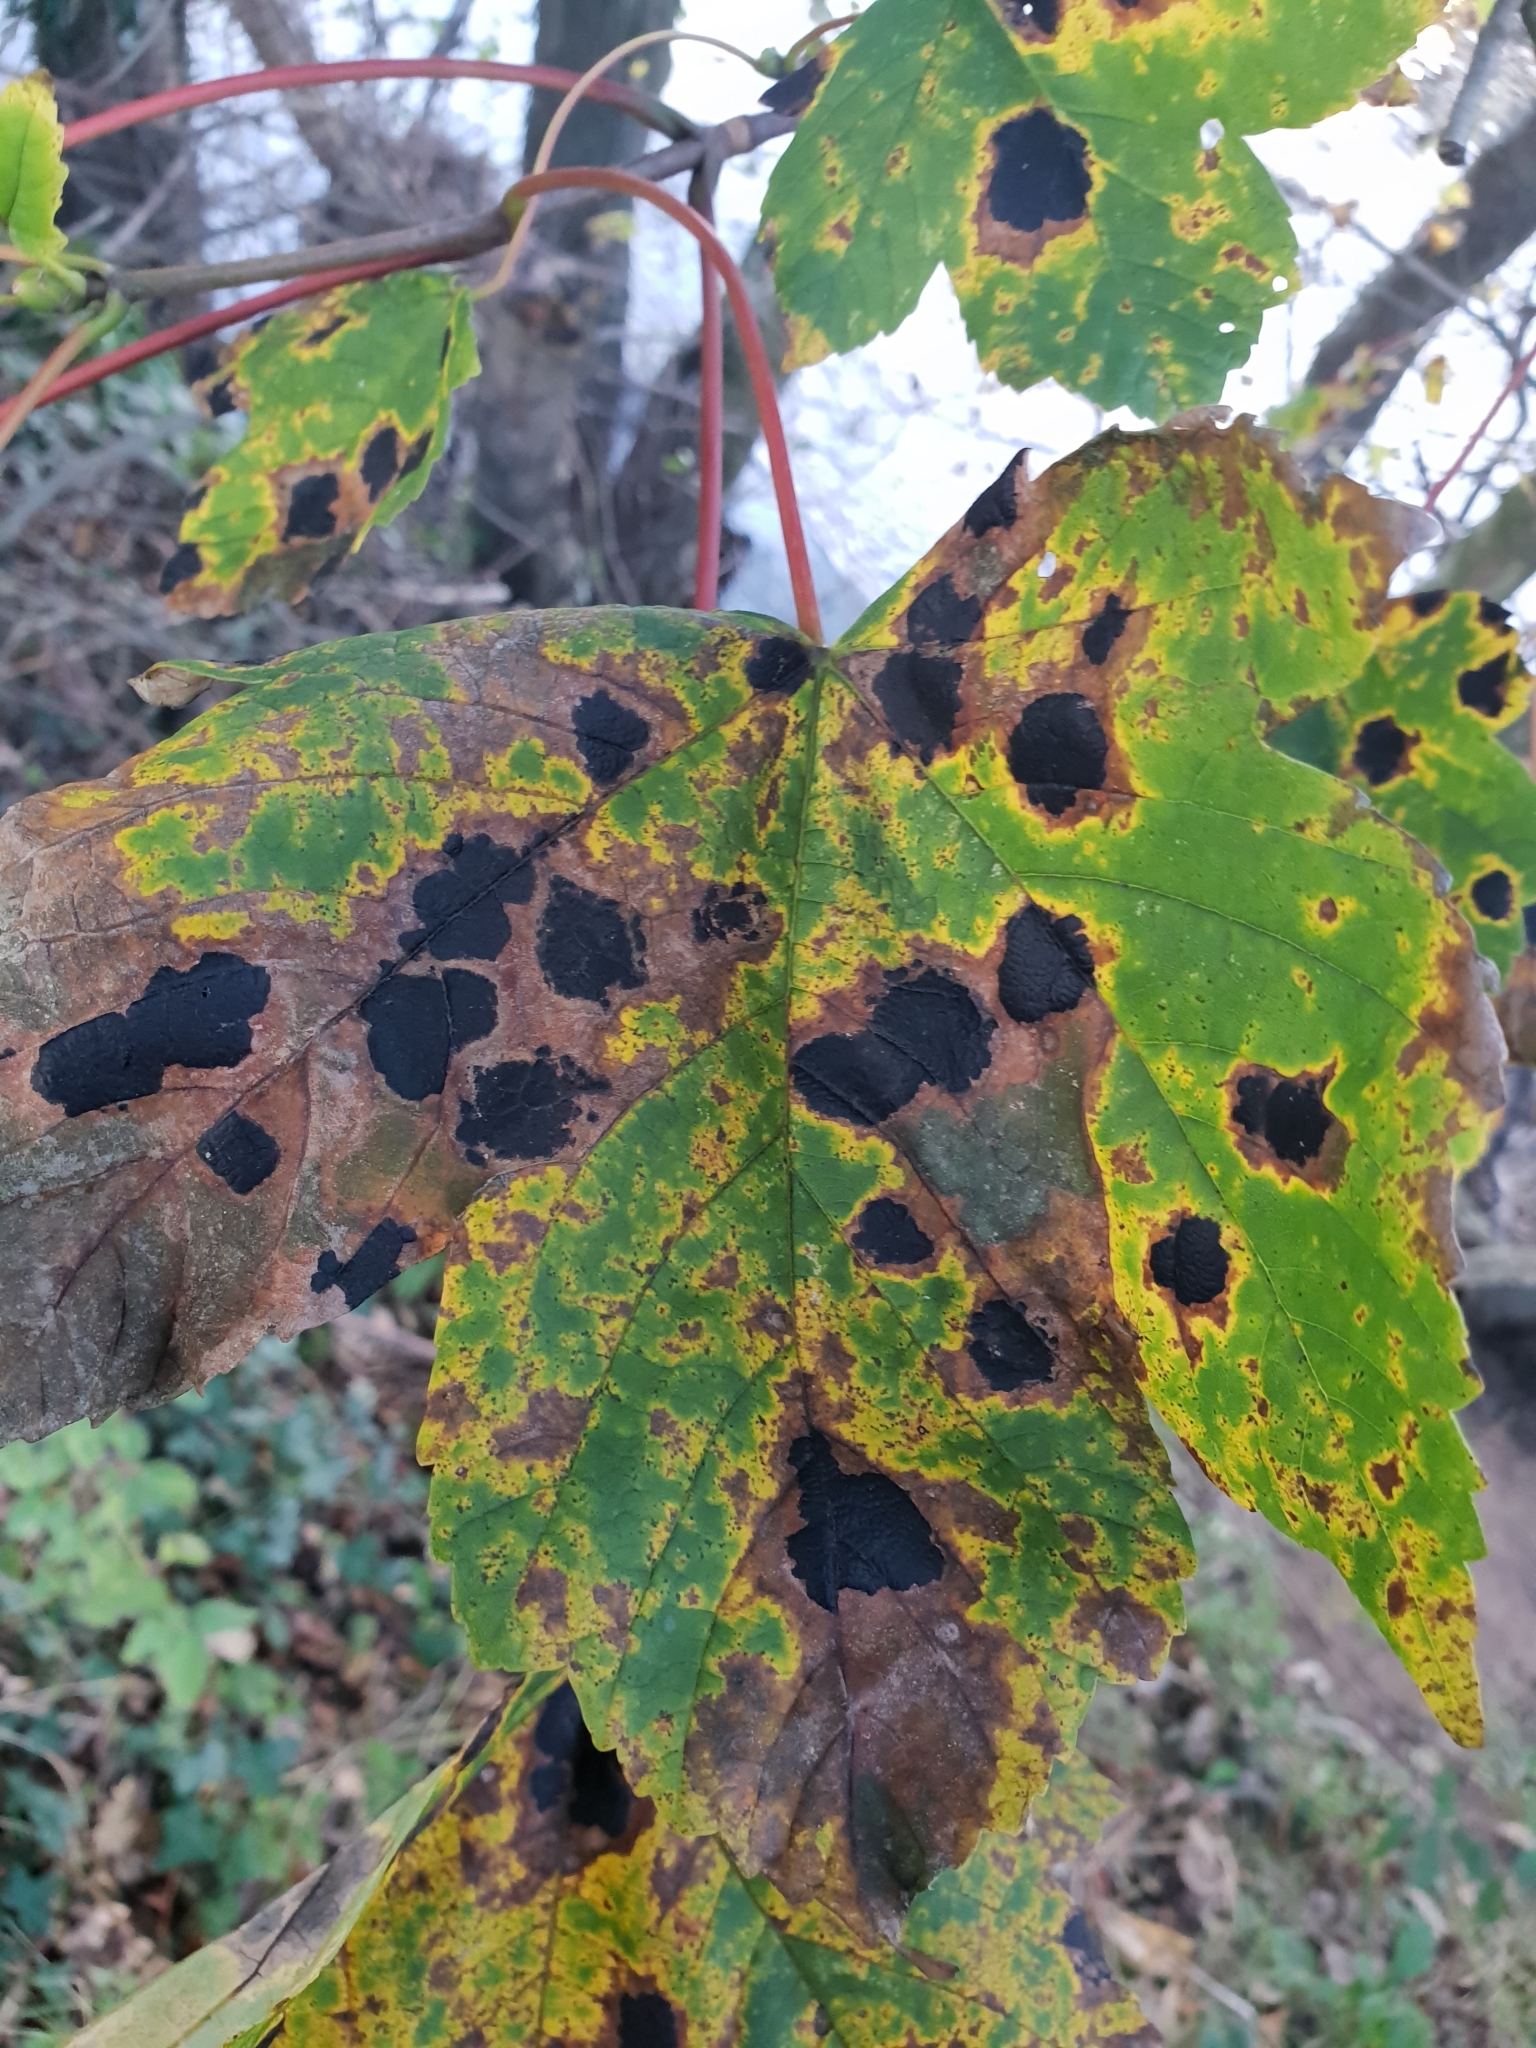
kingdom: Fungi
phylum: Ascomycota
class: Leotiomycetes
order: Rhytismatales
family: Rhytismataceae
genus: Rhytisma
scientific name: Rhytisma acerinum
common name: European tar spot
